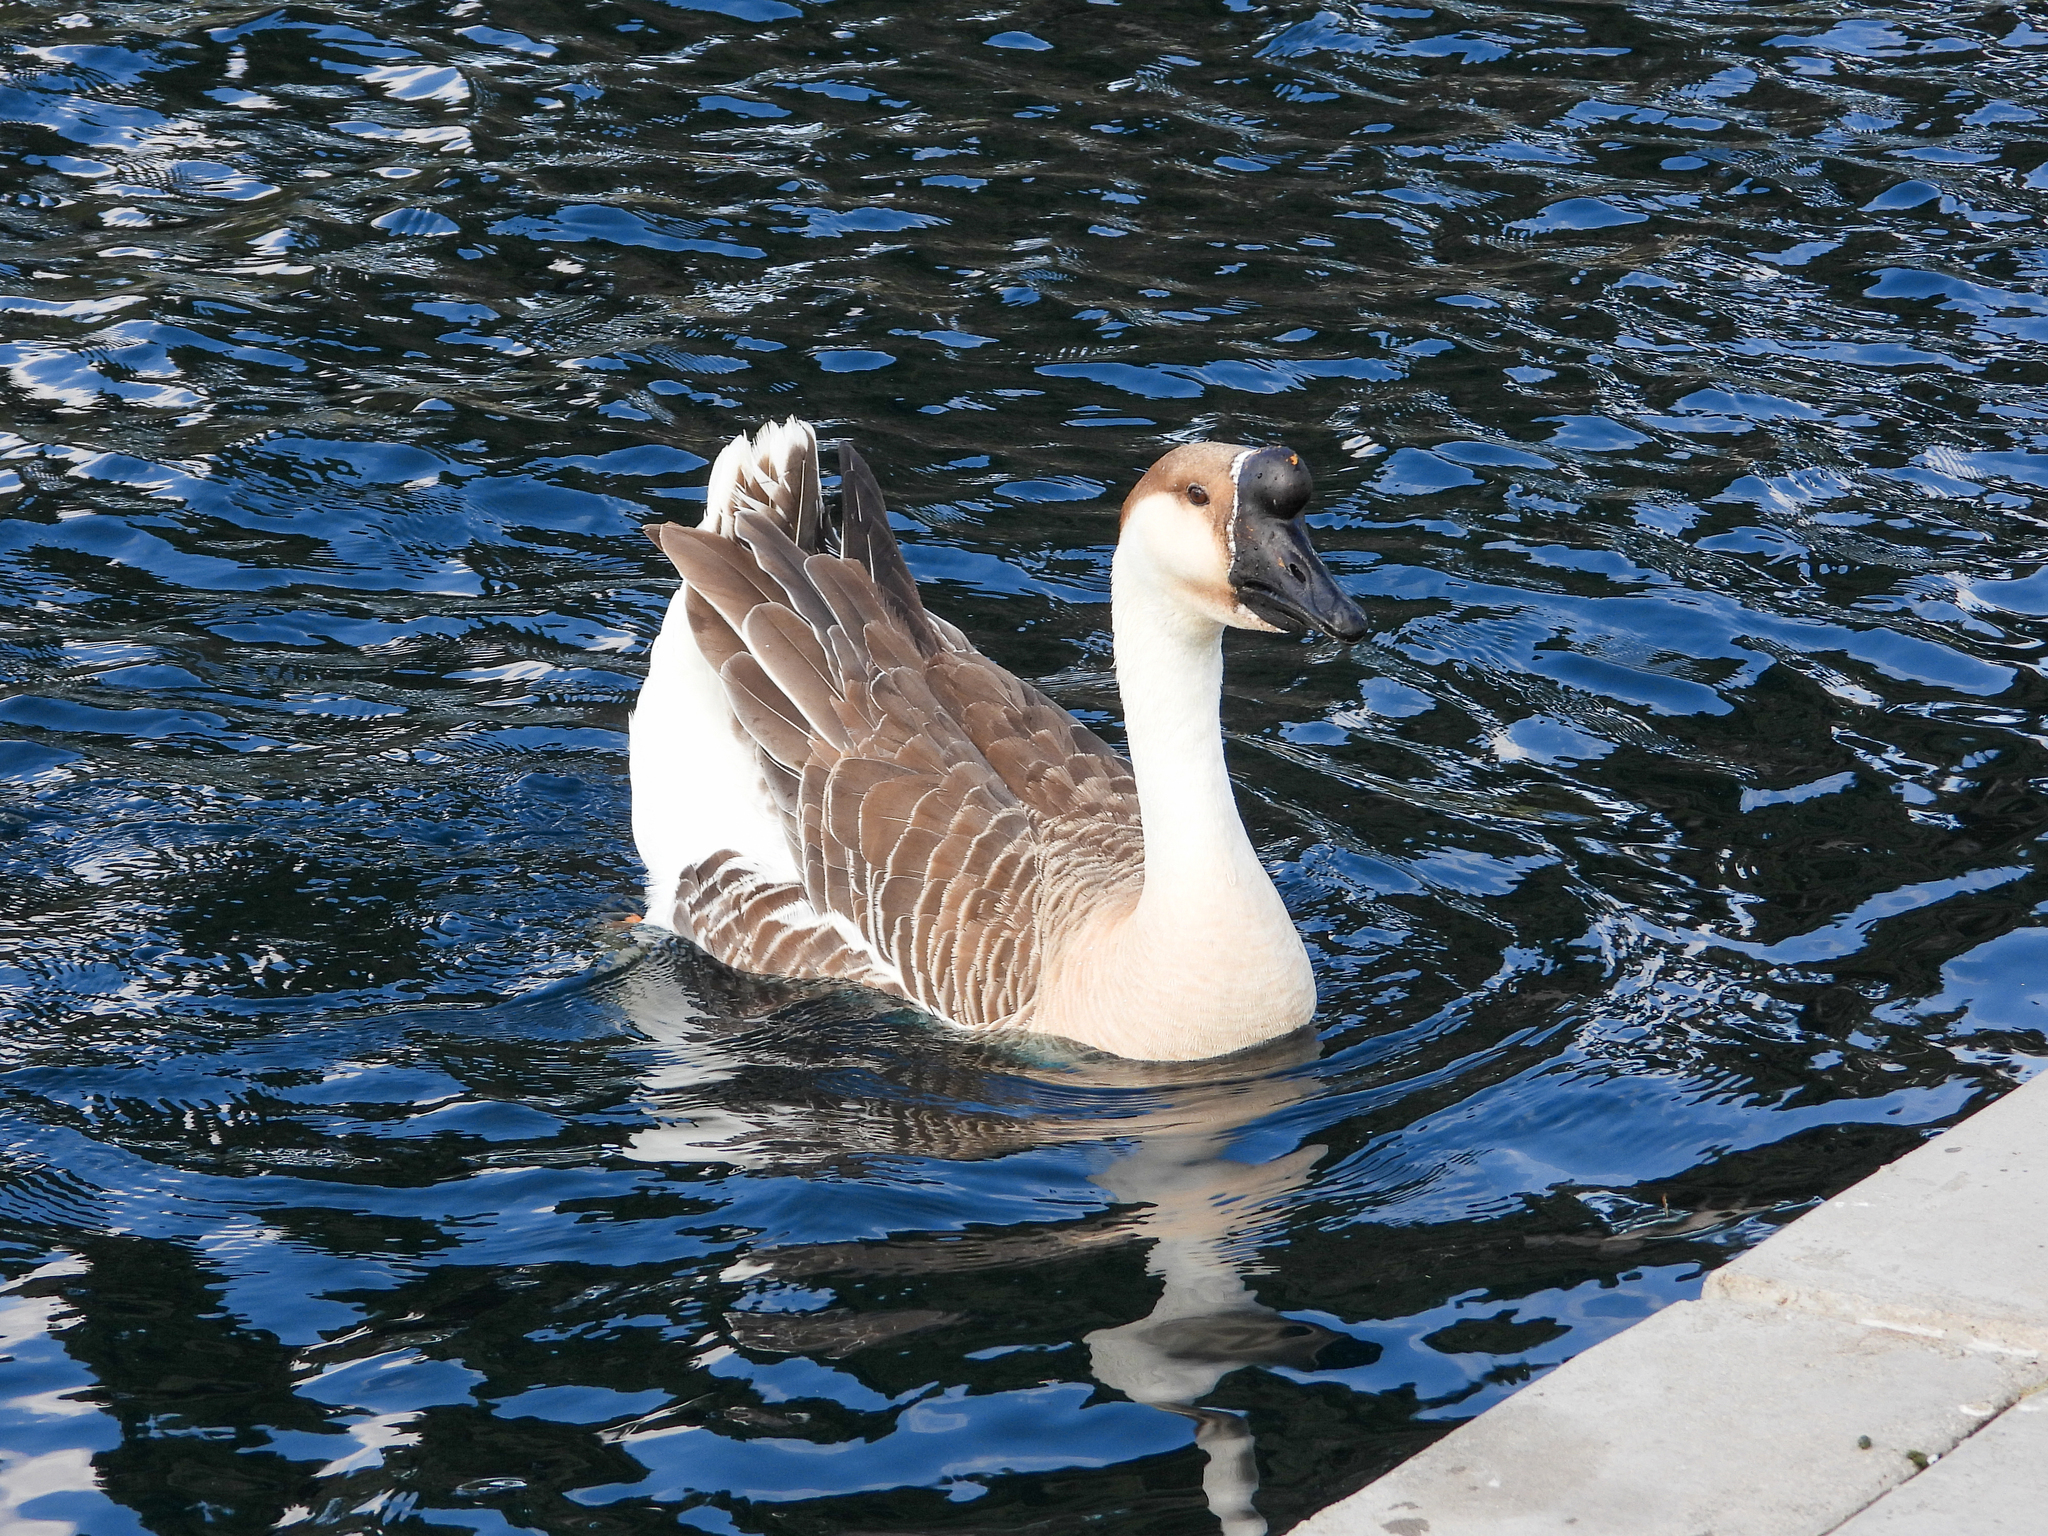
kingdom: Animalia
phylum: Chordata
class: Aves
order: Anseriformes
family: Anatidae
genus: Anser
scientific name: Anser cygnoides
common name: Swan goose
